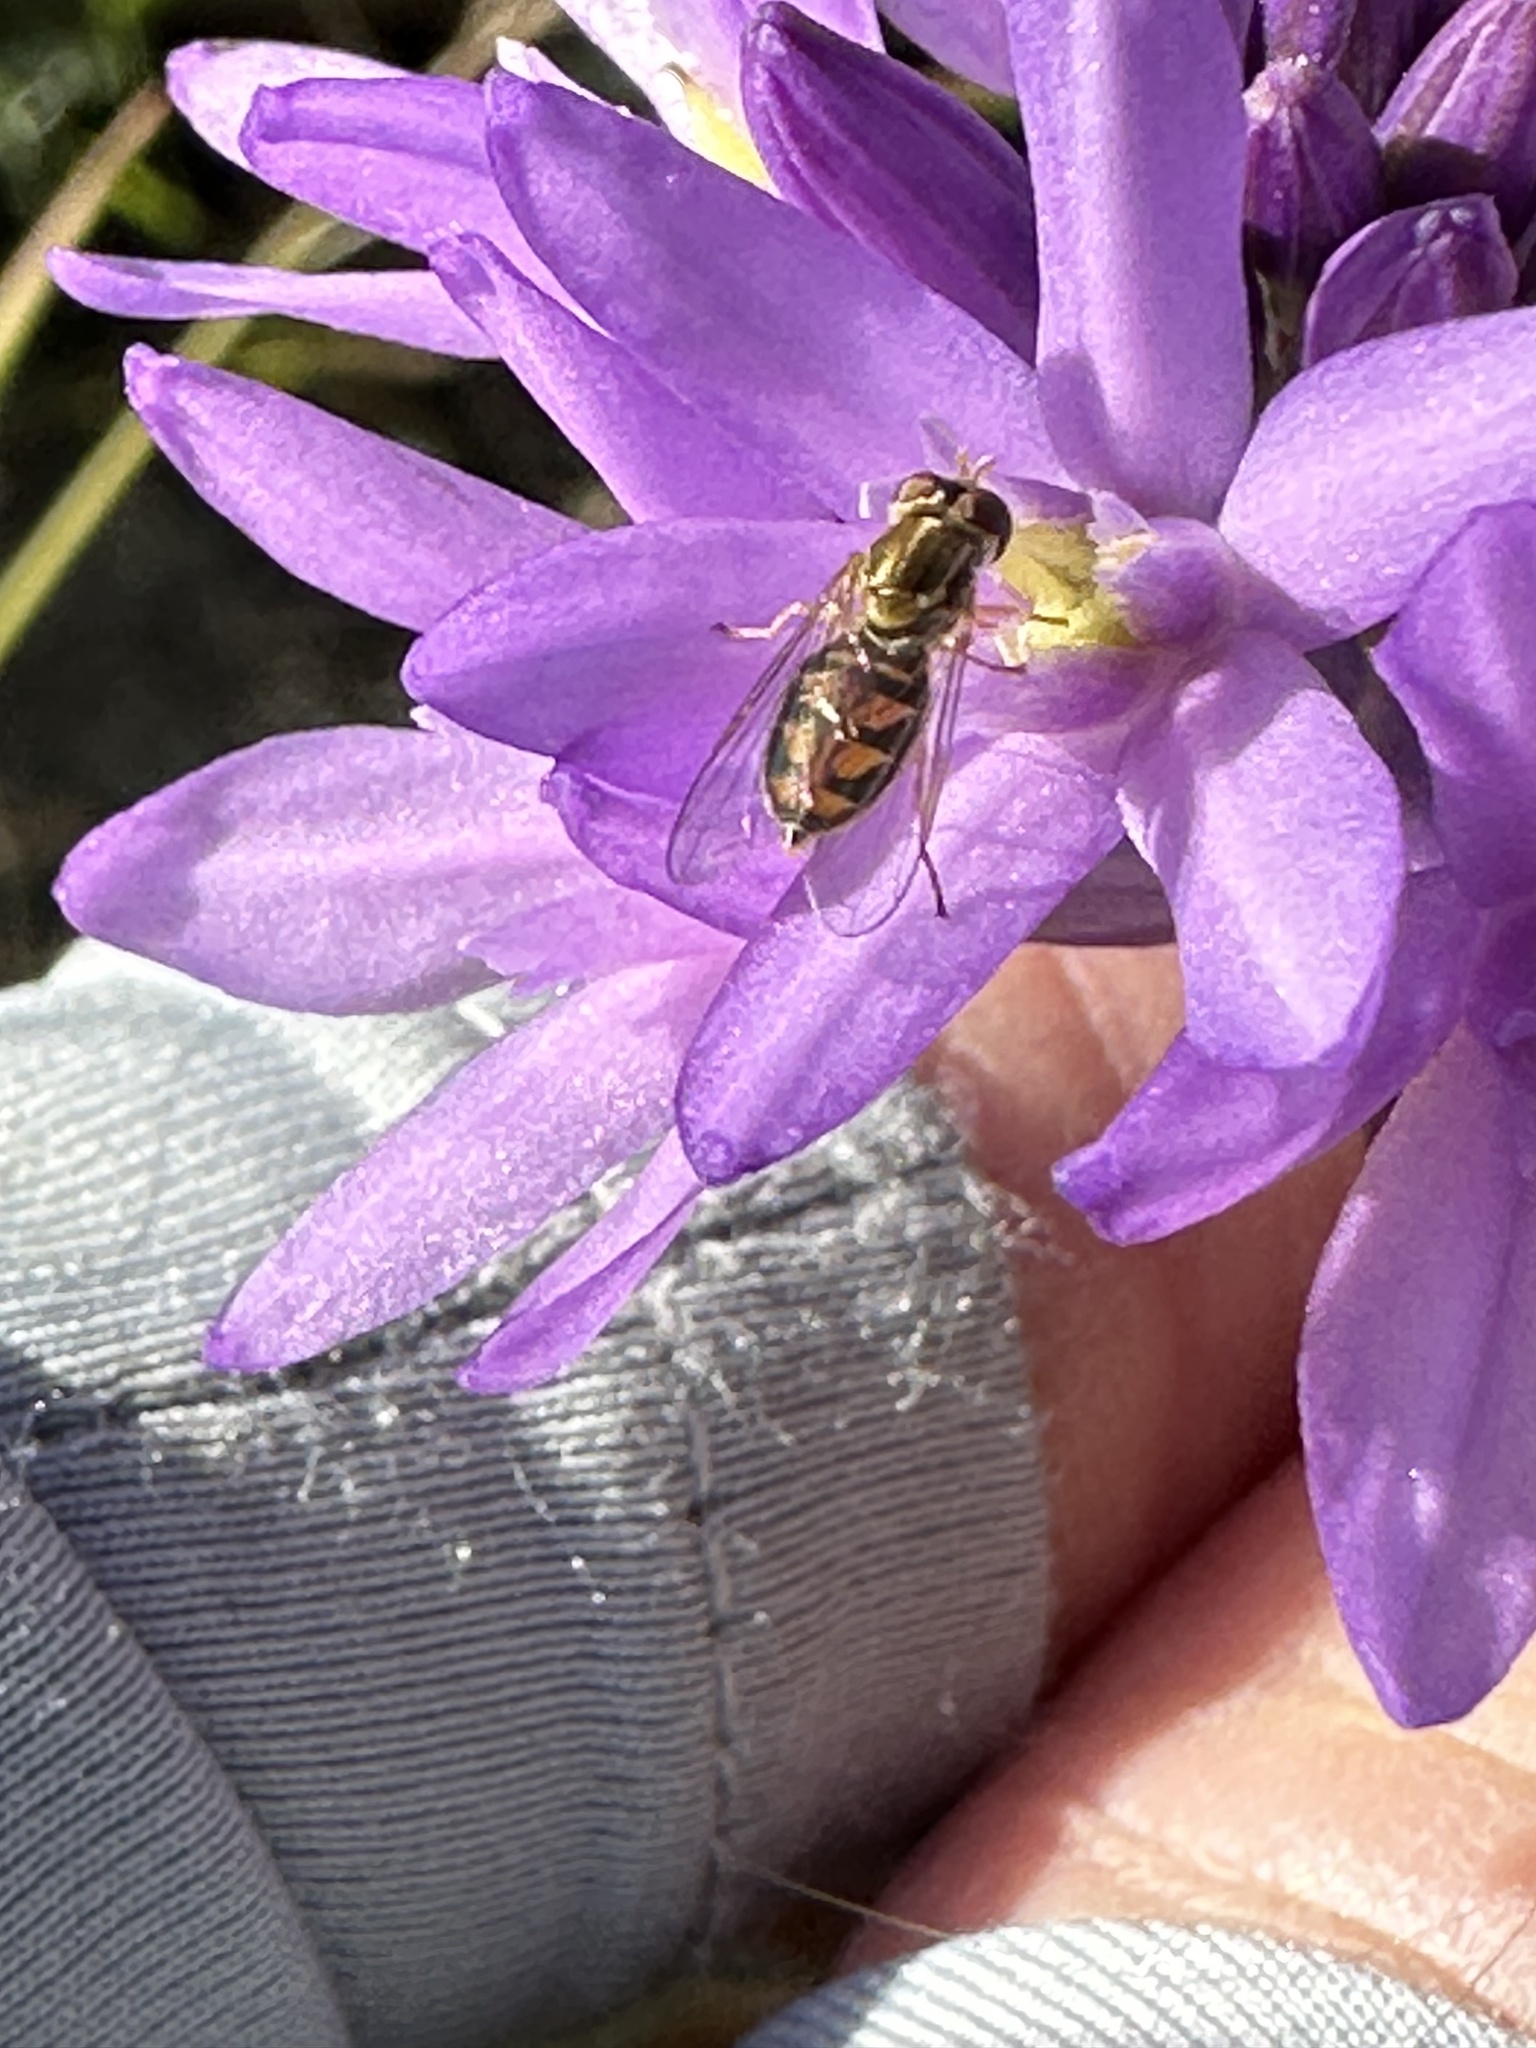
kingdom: Animalia
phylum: Arthropoda
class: Insecta
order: Diptera
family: Syrphidae
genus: Toxomerus
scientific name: Toxomerus marginatus
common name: Syrphid fly
